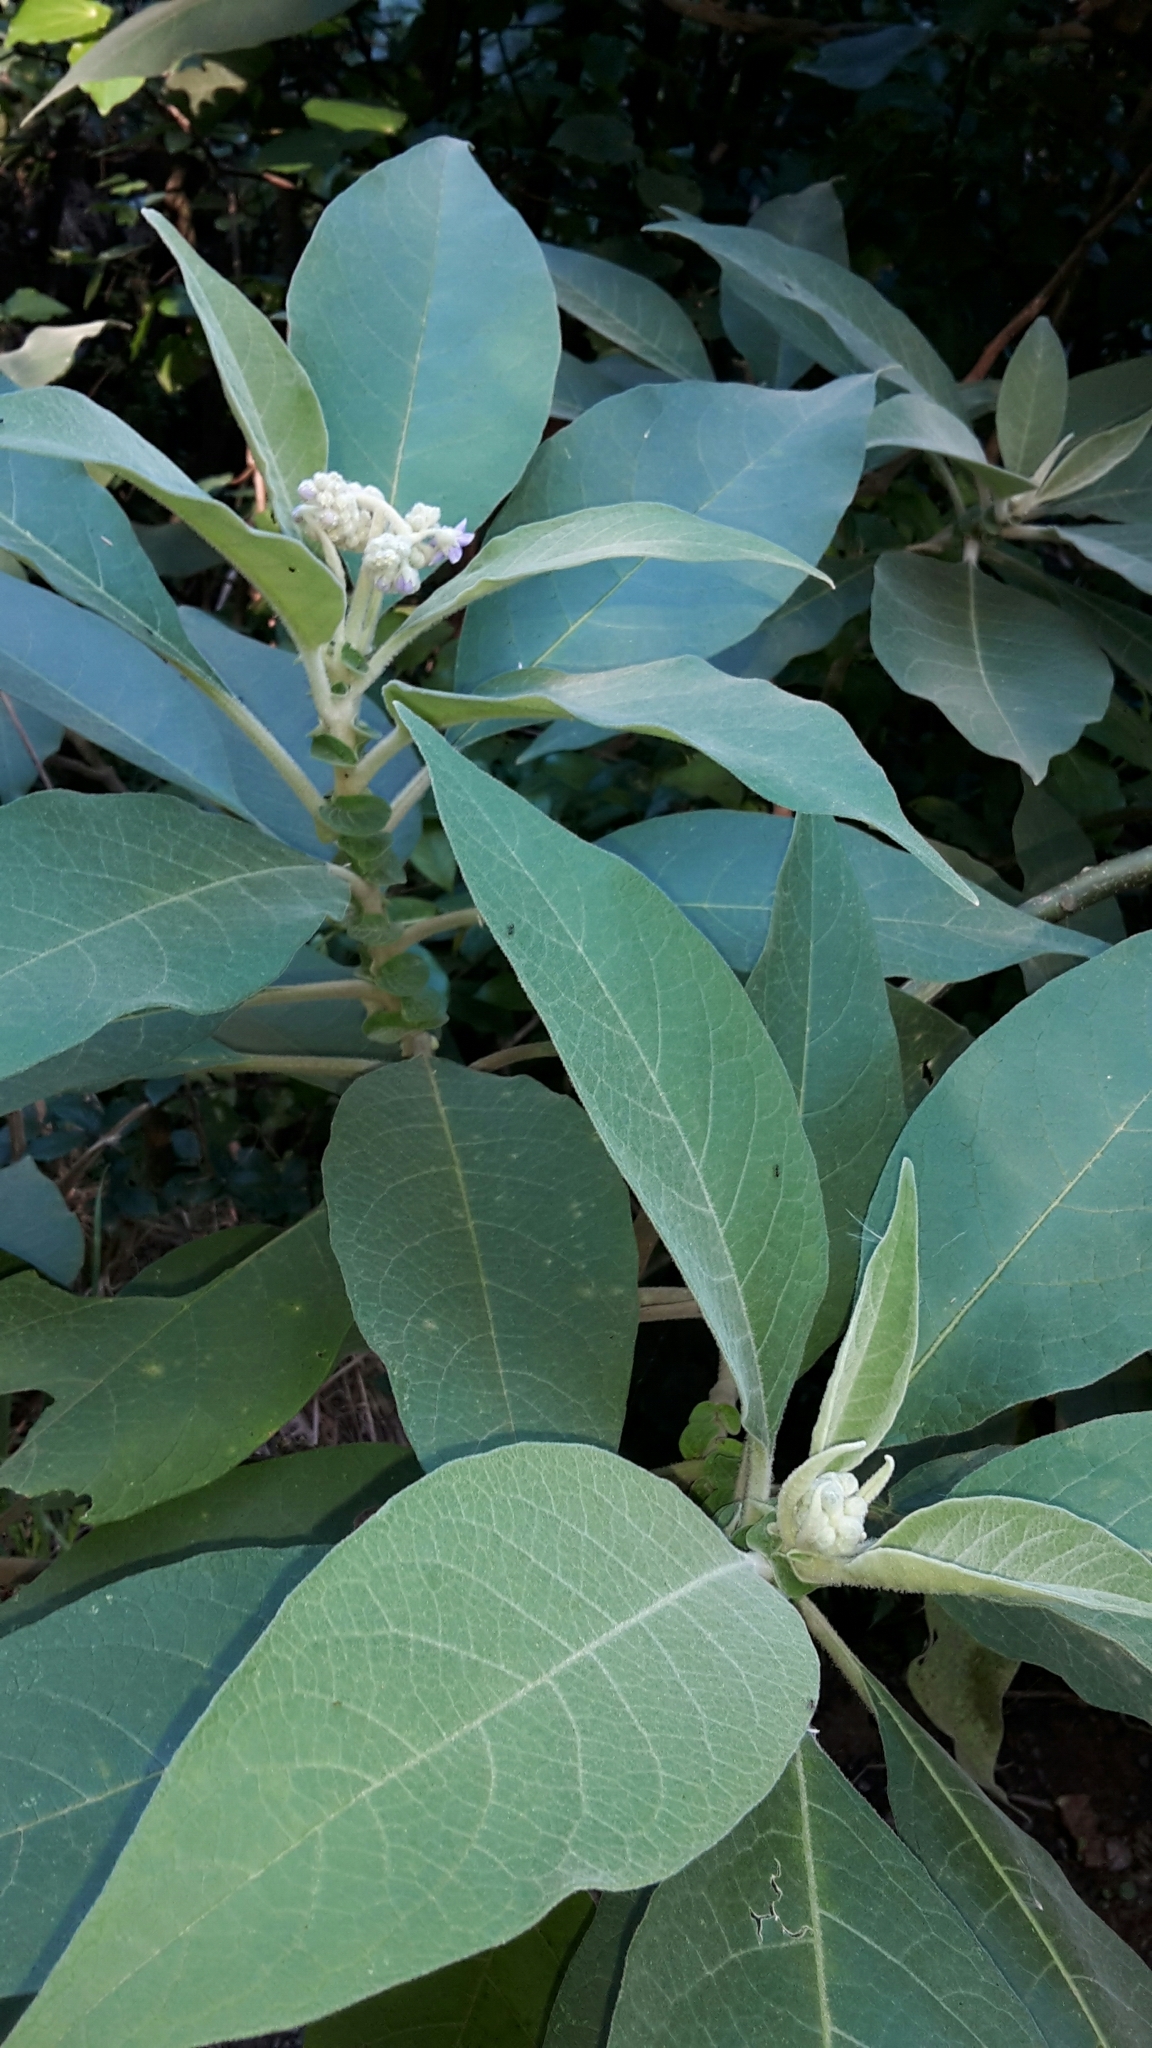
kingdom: Plantae
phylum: Tracheophyta
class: Magnoliopsida
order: Solanales
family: Solanaceae
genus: Solanum
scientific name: Solanum mauritianum
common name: Earleaf nightshade
